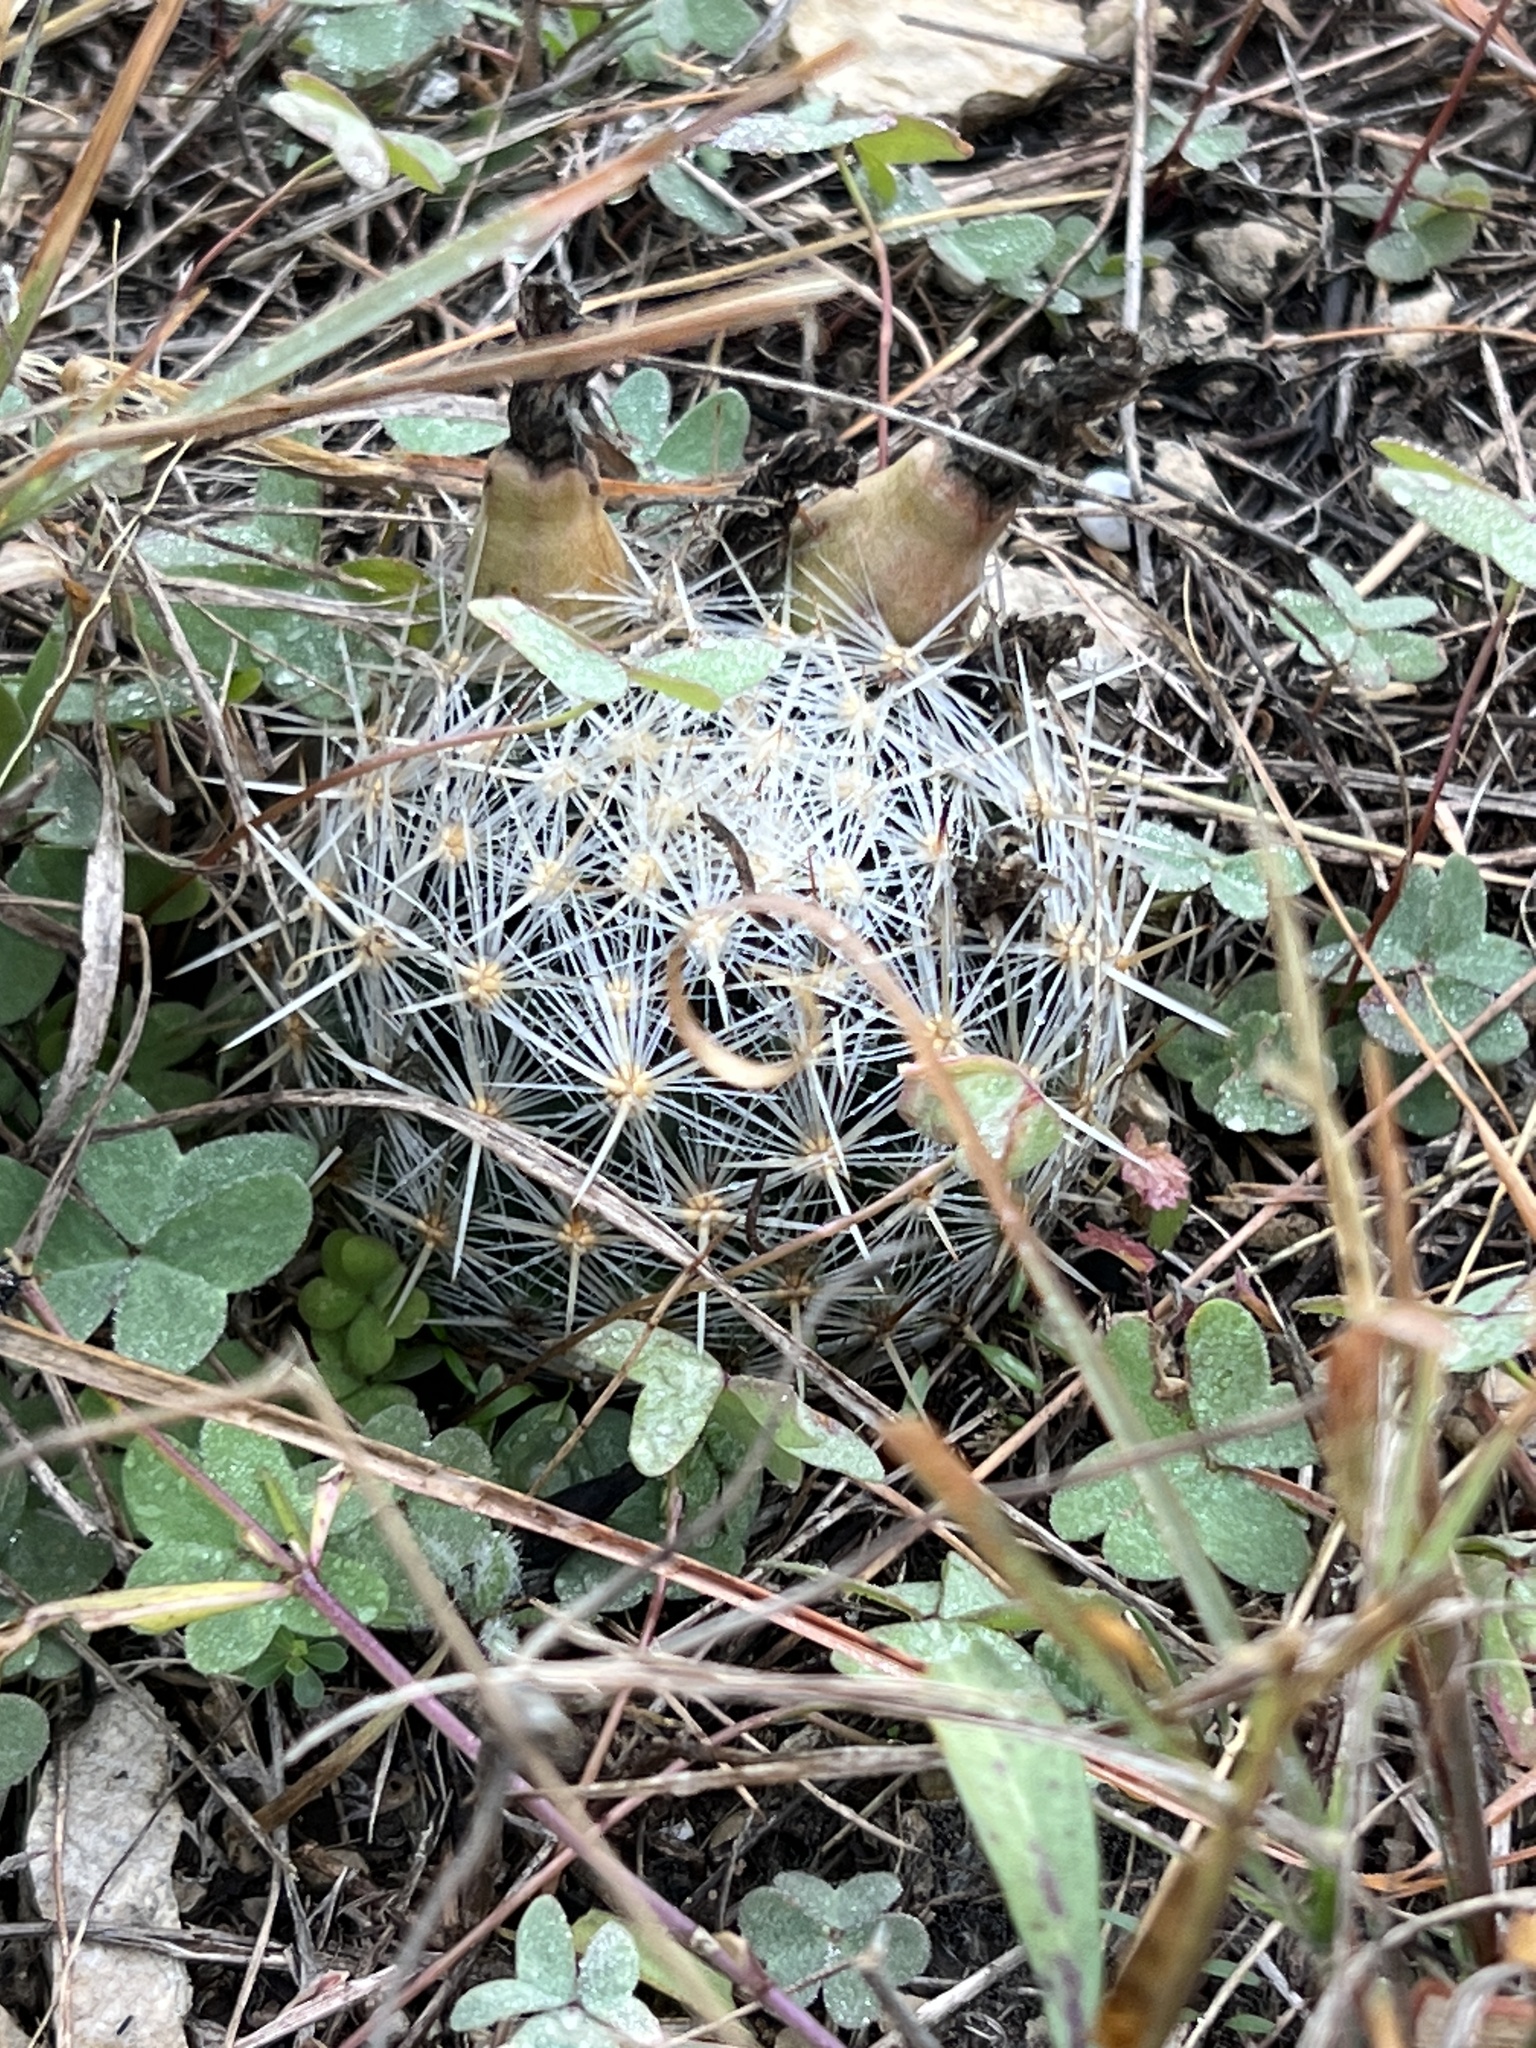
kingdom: Plantae
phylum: Tracheophyta
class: Magnoliopsida
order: Caryophyllales
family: Cactaceae
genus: Pelecyphora
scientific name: Pelecyphora vivipara
